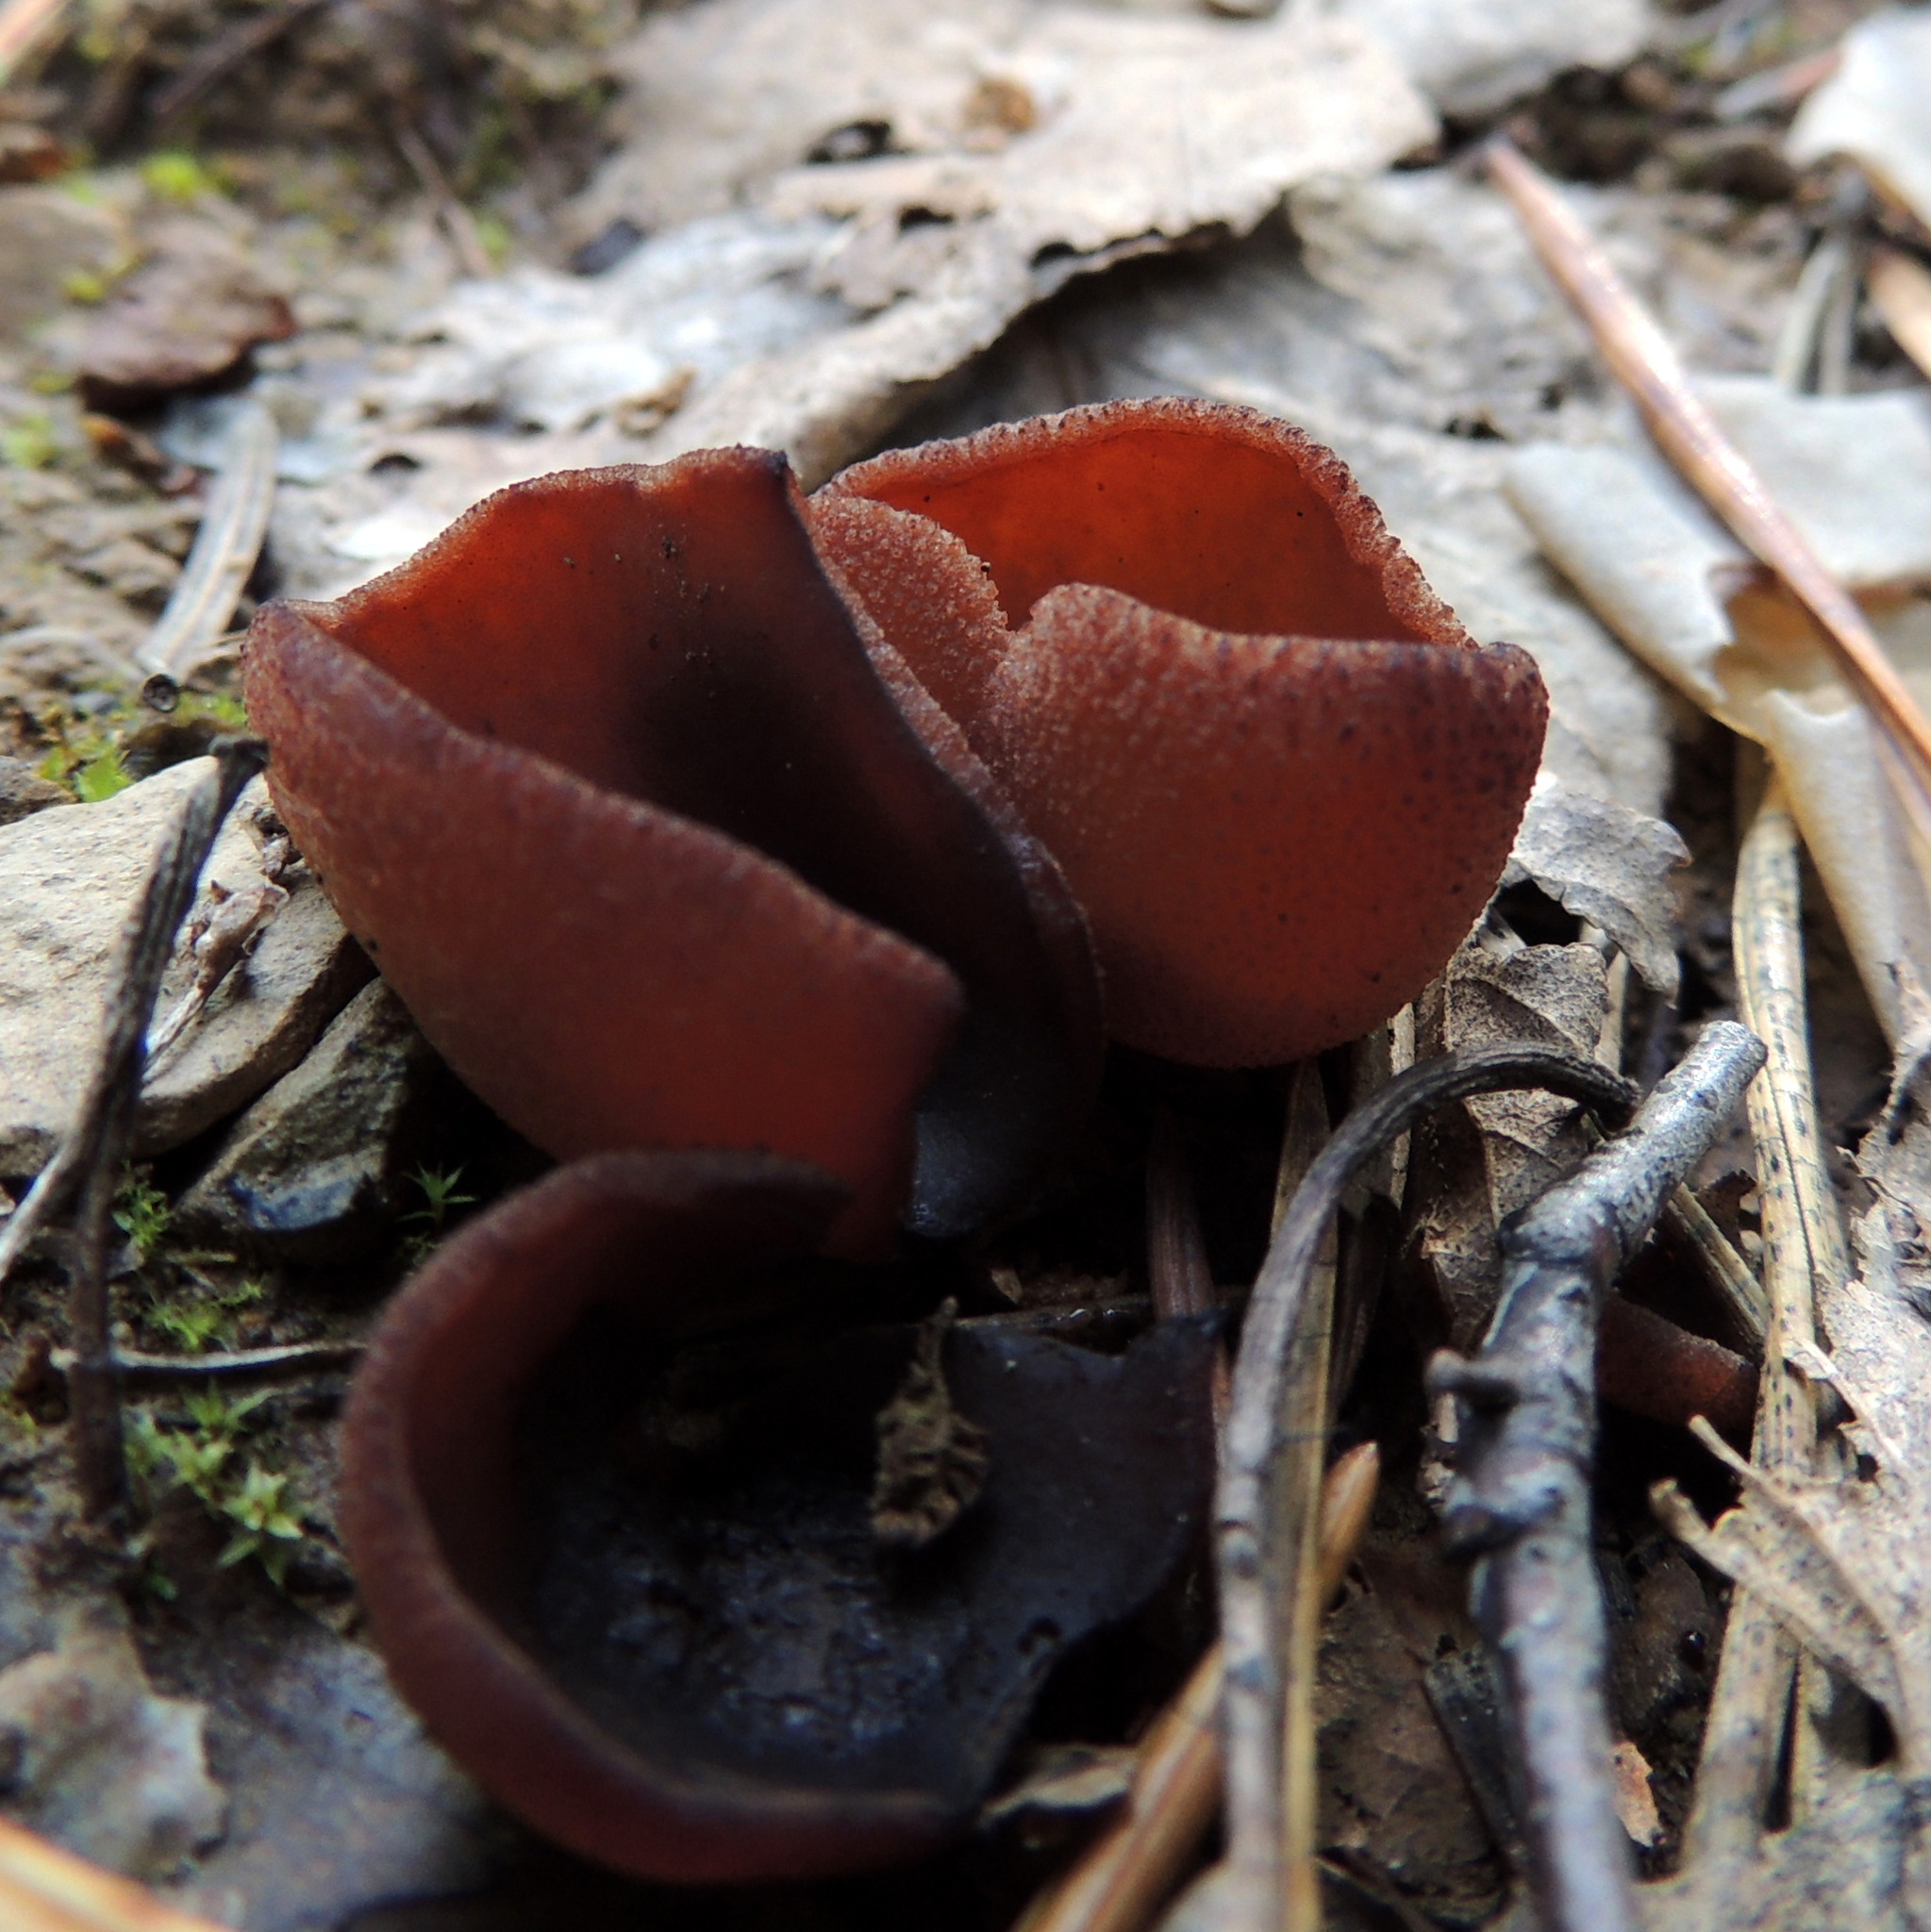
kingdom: Fungi
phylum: Ascomycota
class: Pezizomycetes
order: Pezizales
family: Pezizaceae
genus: Legaliana
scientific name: Legaliana badia
